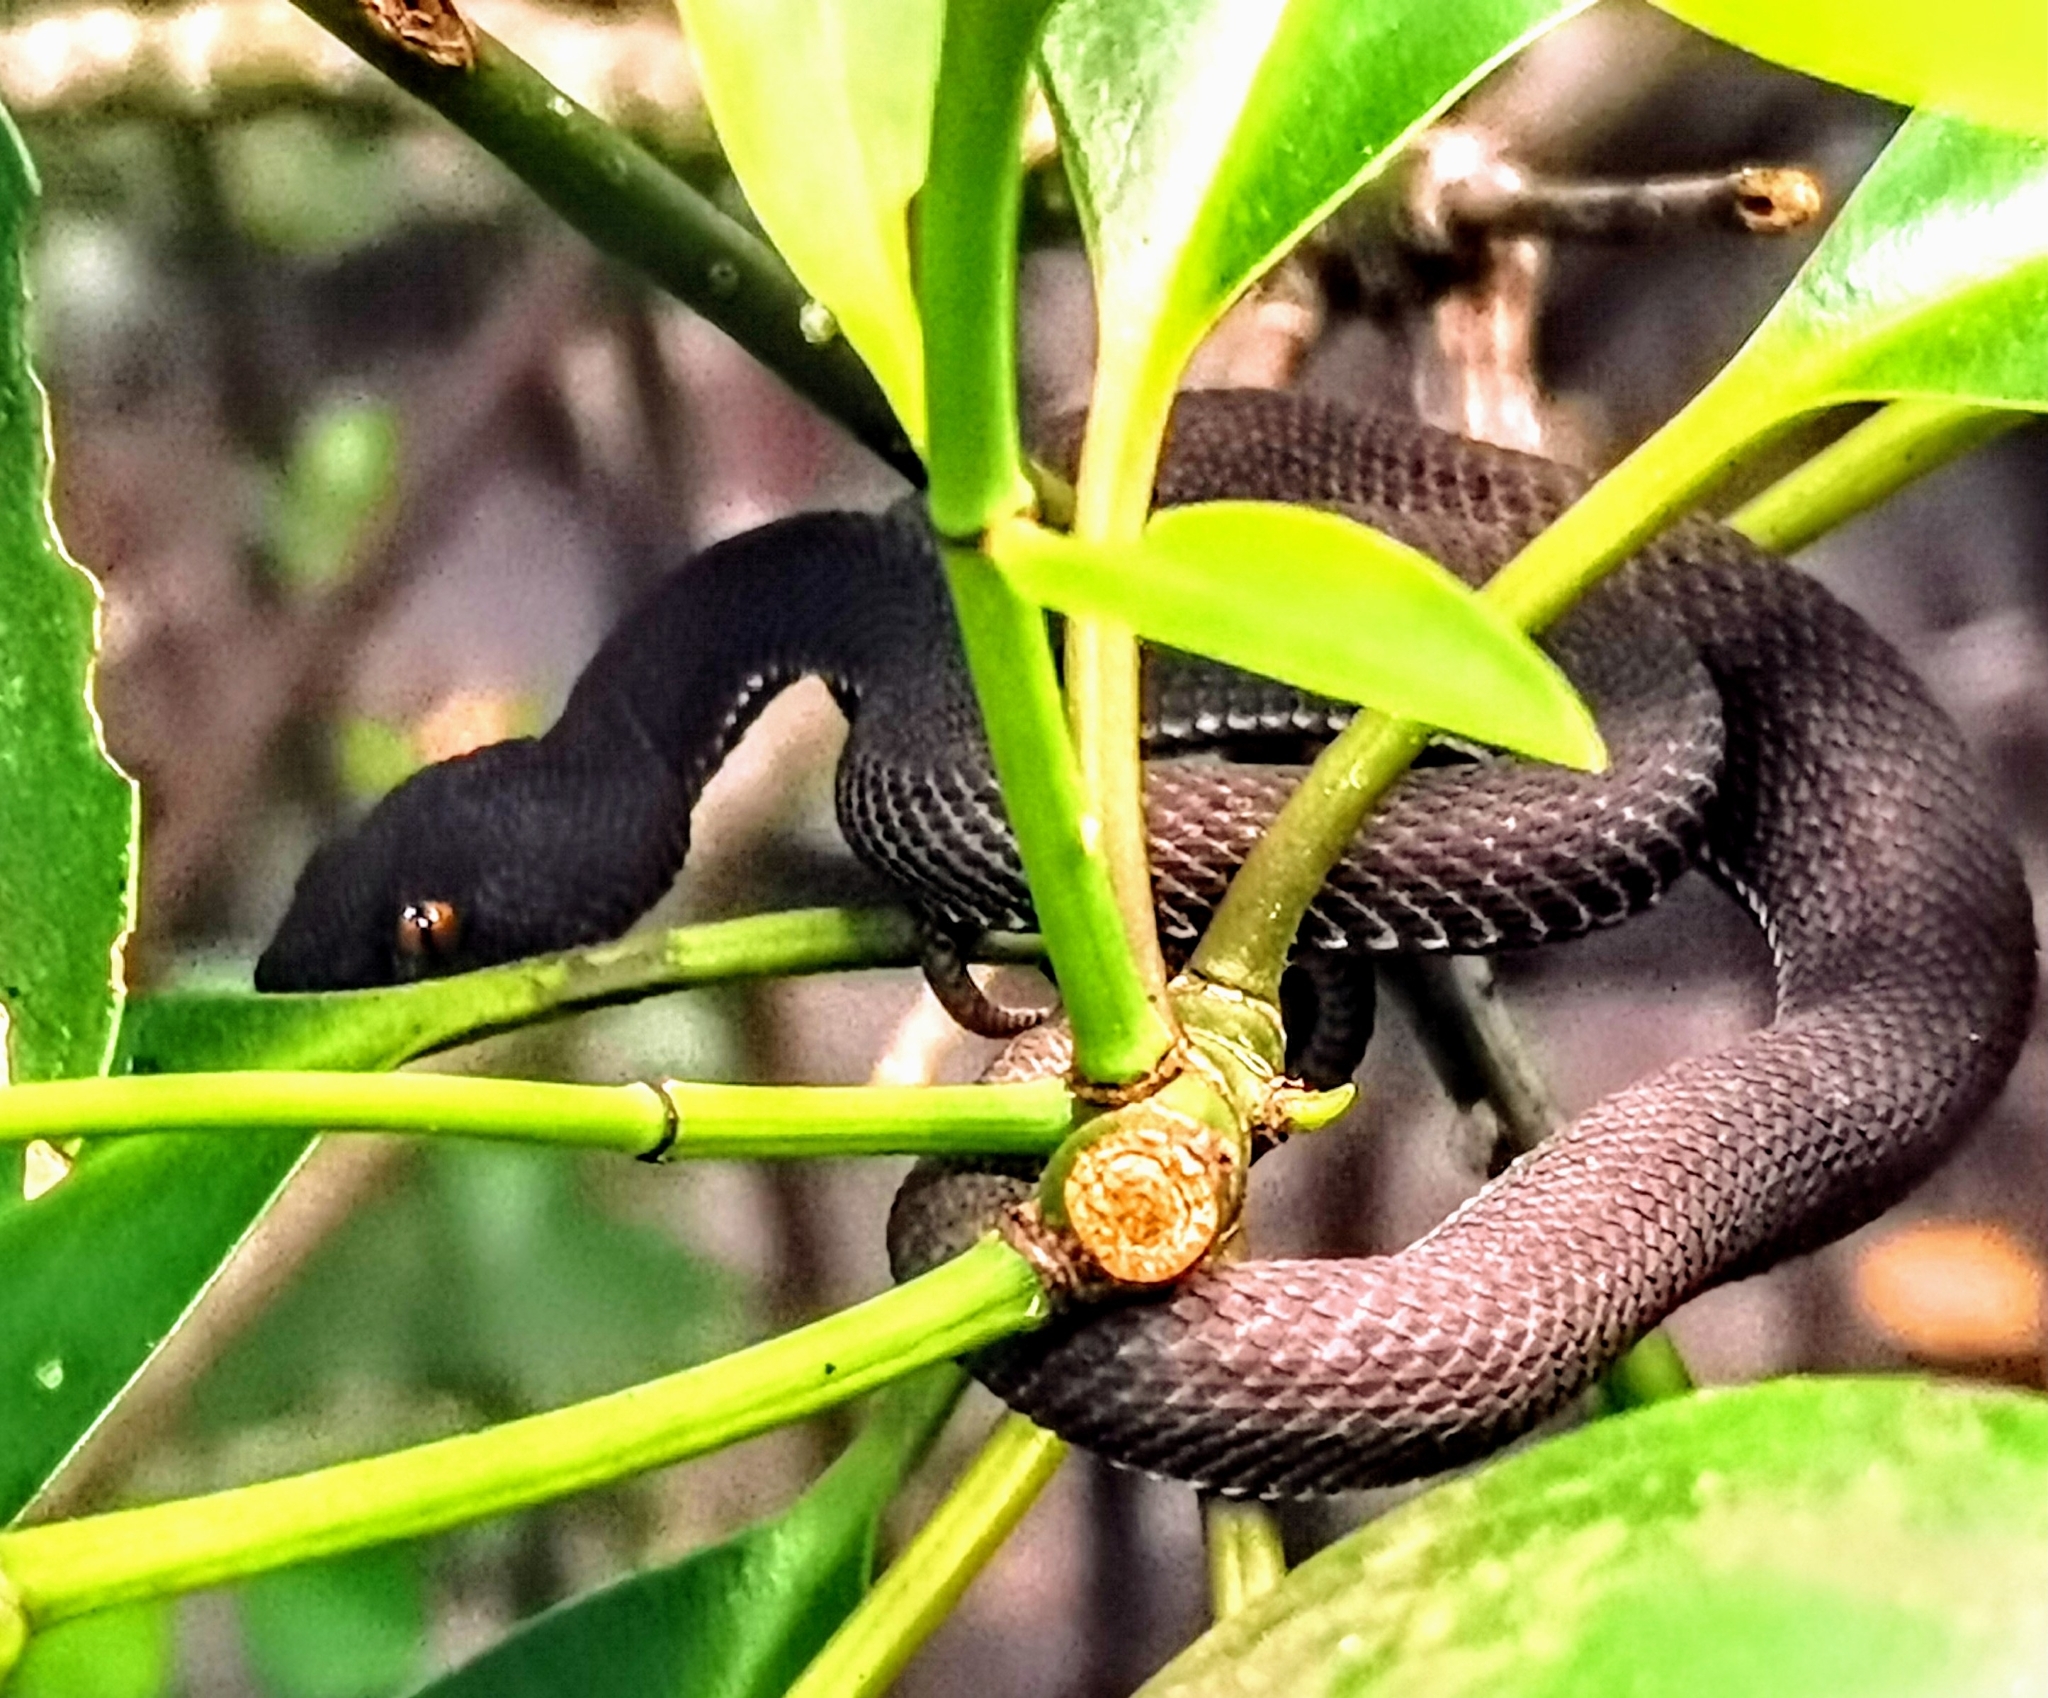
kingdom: Animalia
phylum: Chordata
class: Squamata
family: Viperidae
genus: Trimeresurus
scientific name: Trimeresurus purpureomaculatus
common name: Shore pit viper
